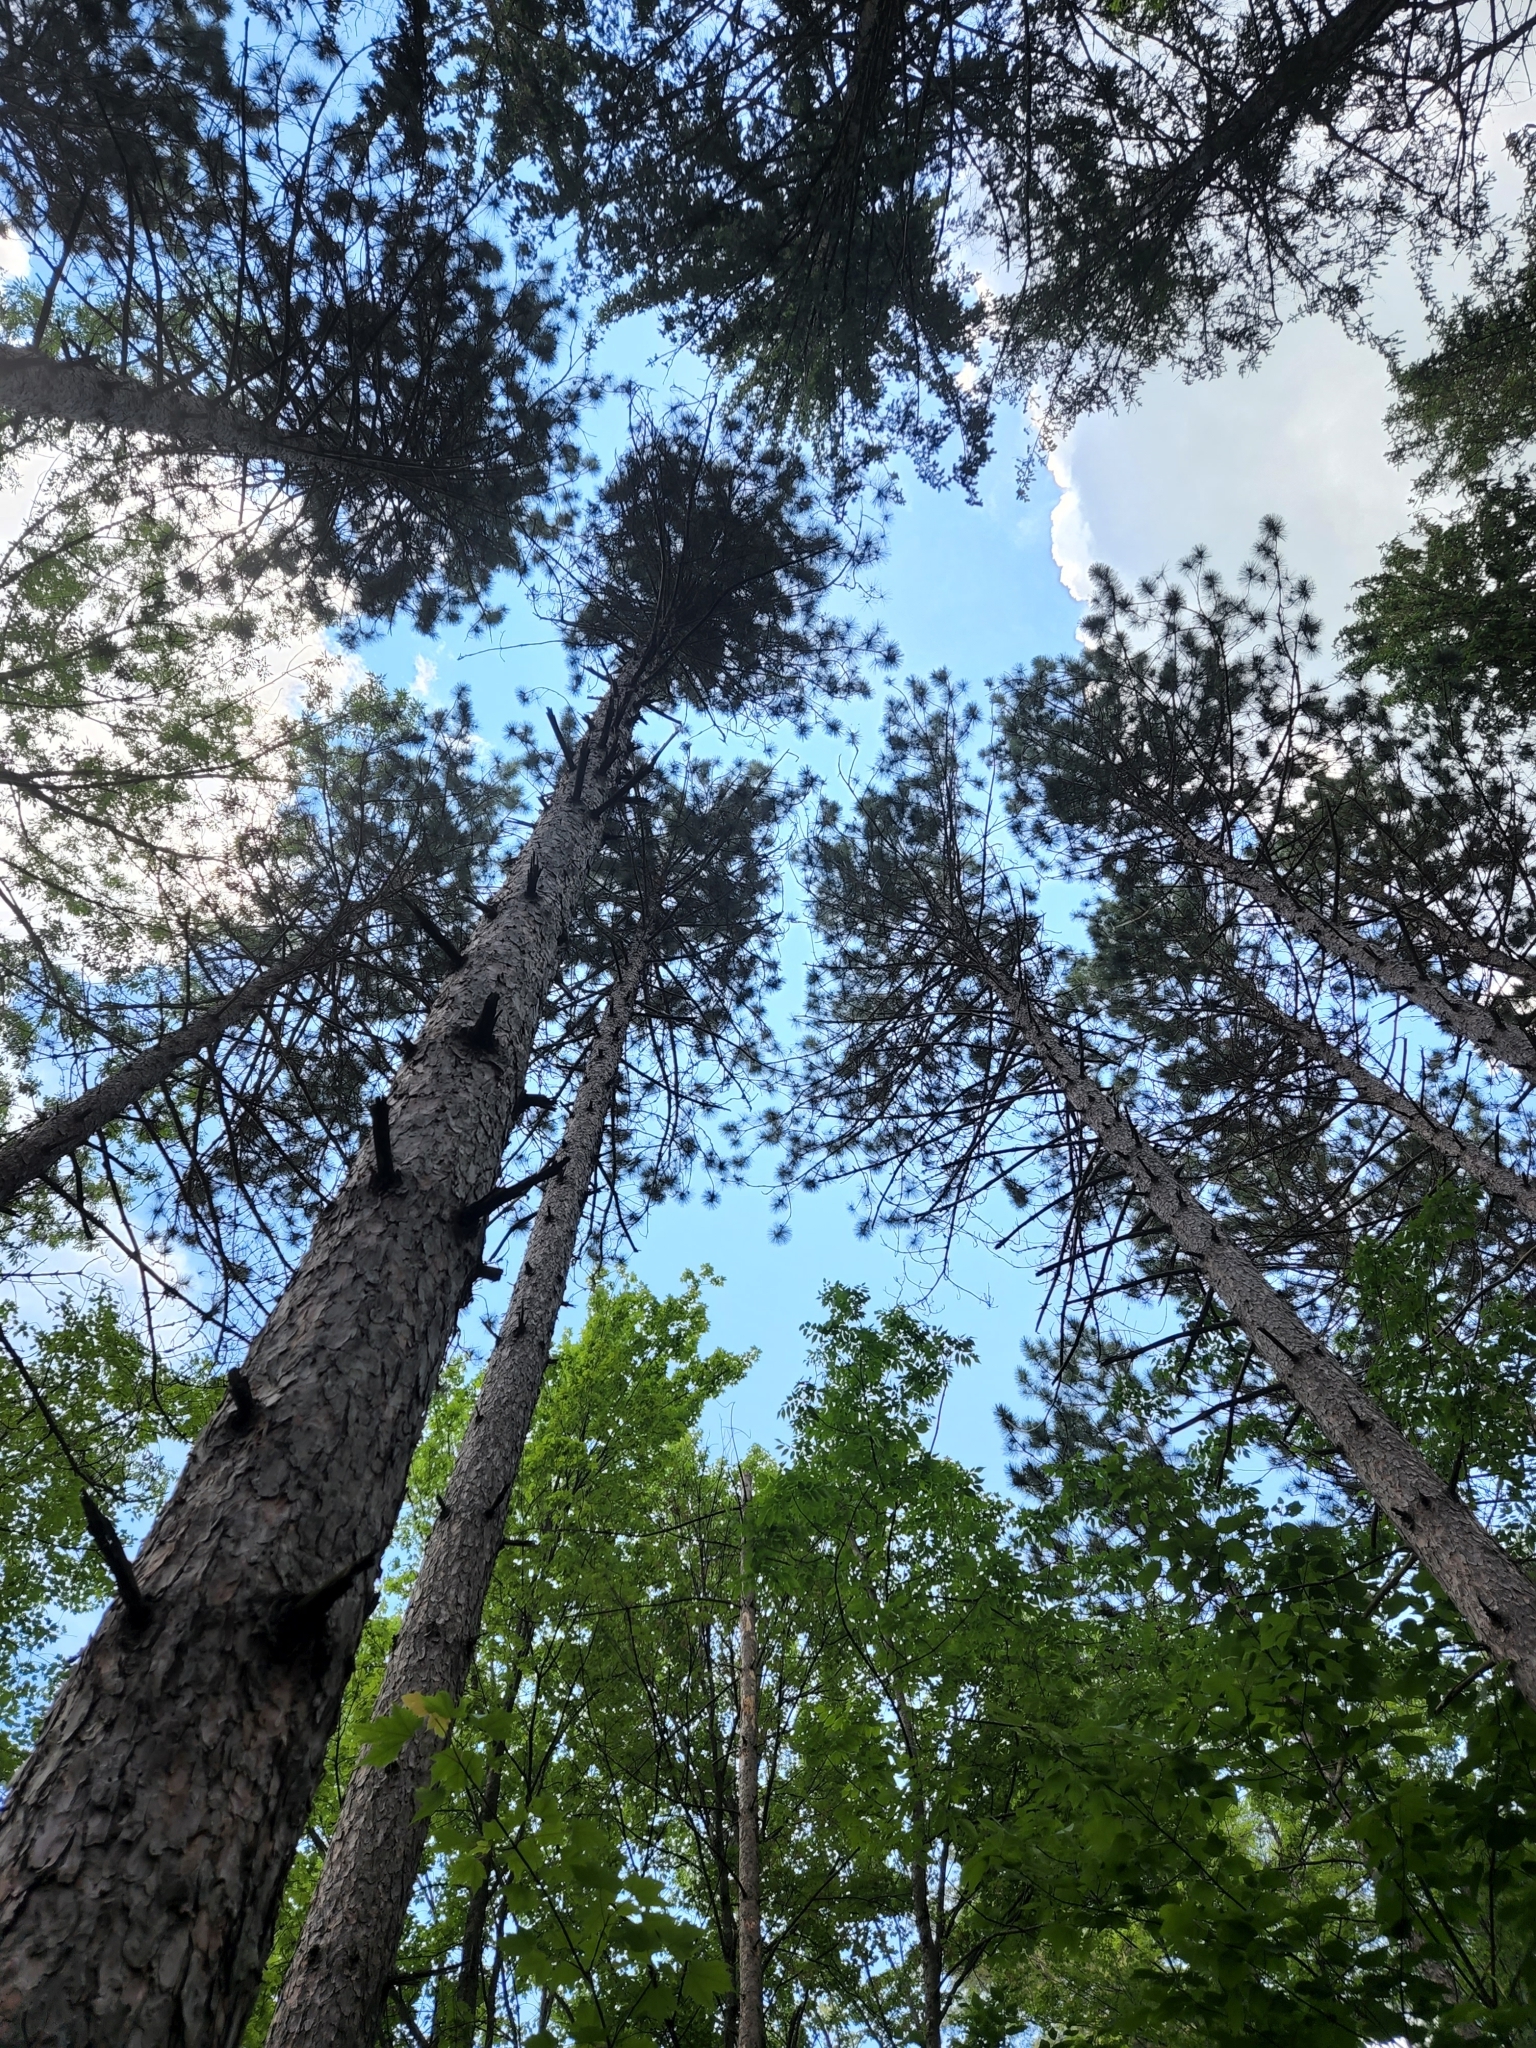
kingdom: Plantae
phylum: Tracheophyta
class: Pinopsida
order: Pinales
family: Pinaceae
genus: Pinus
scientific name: Pinus resinosa
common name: Norway pine
